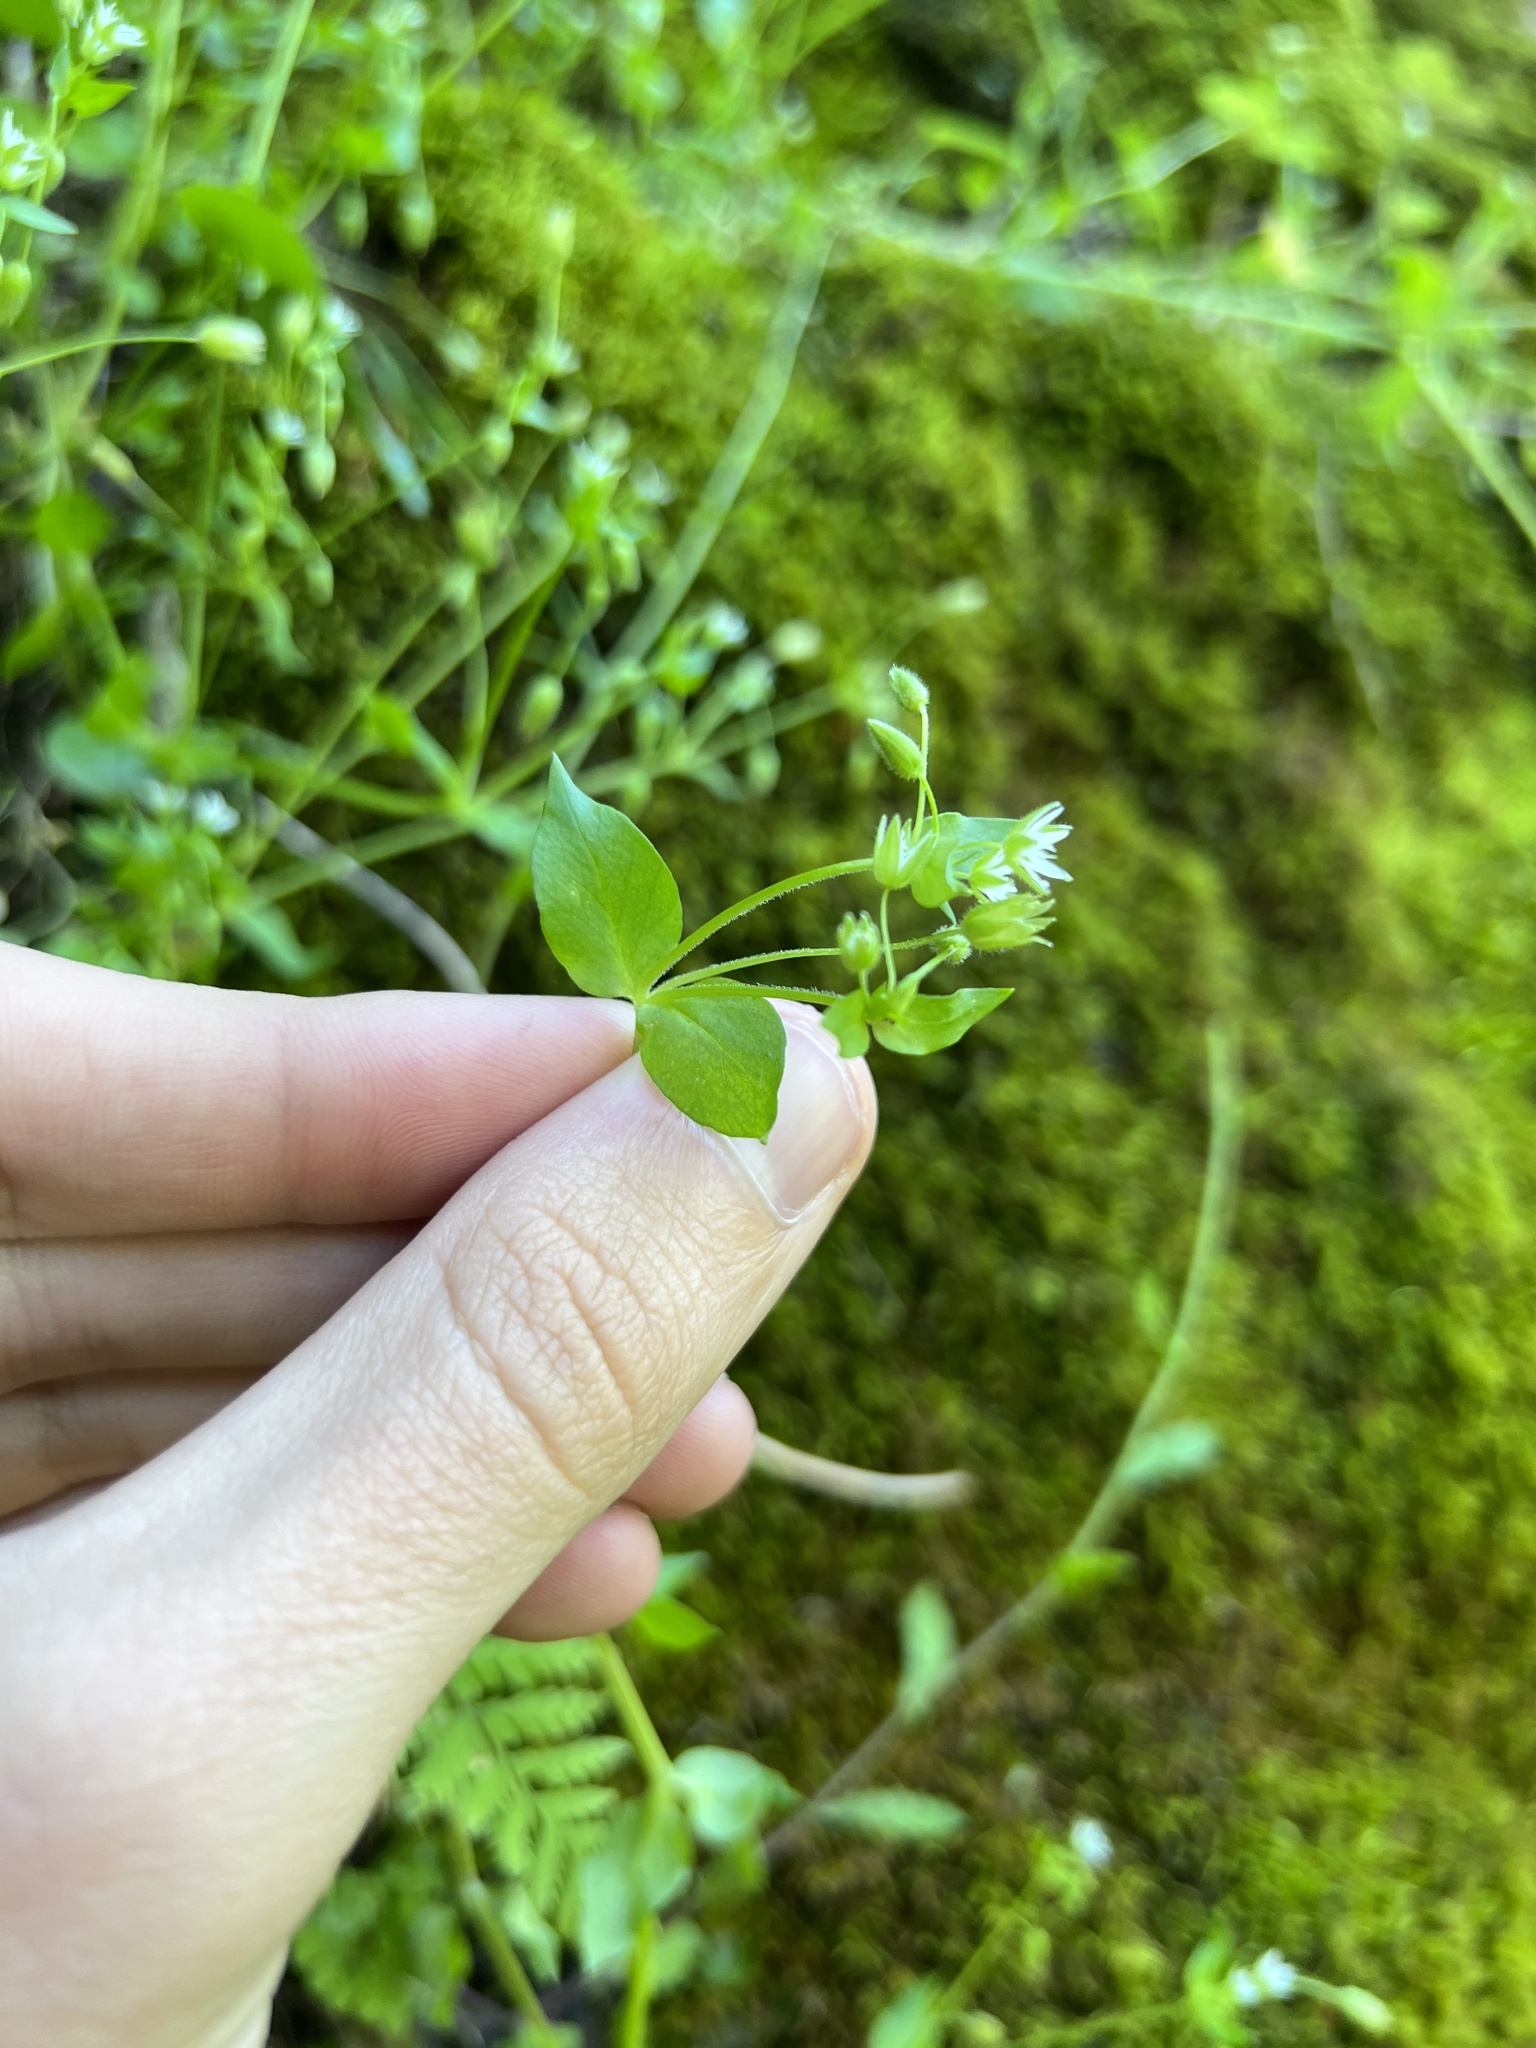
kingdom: Plantae
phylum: Tracheophyta
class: Magnoliopsida
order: Caryophyllales
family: Caryophyllaceae
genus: Stellaria
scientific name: Stellaria media
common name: Common chickweed
